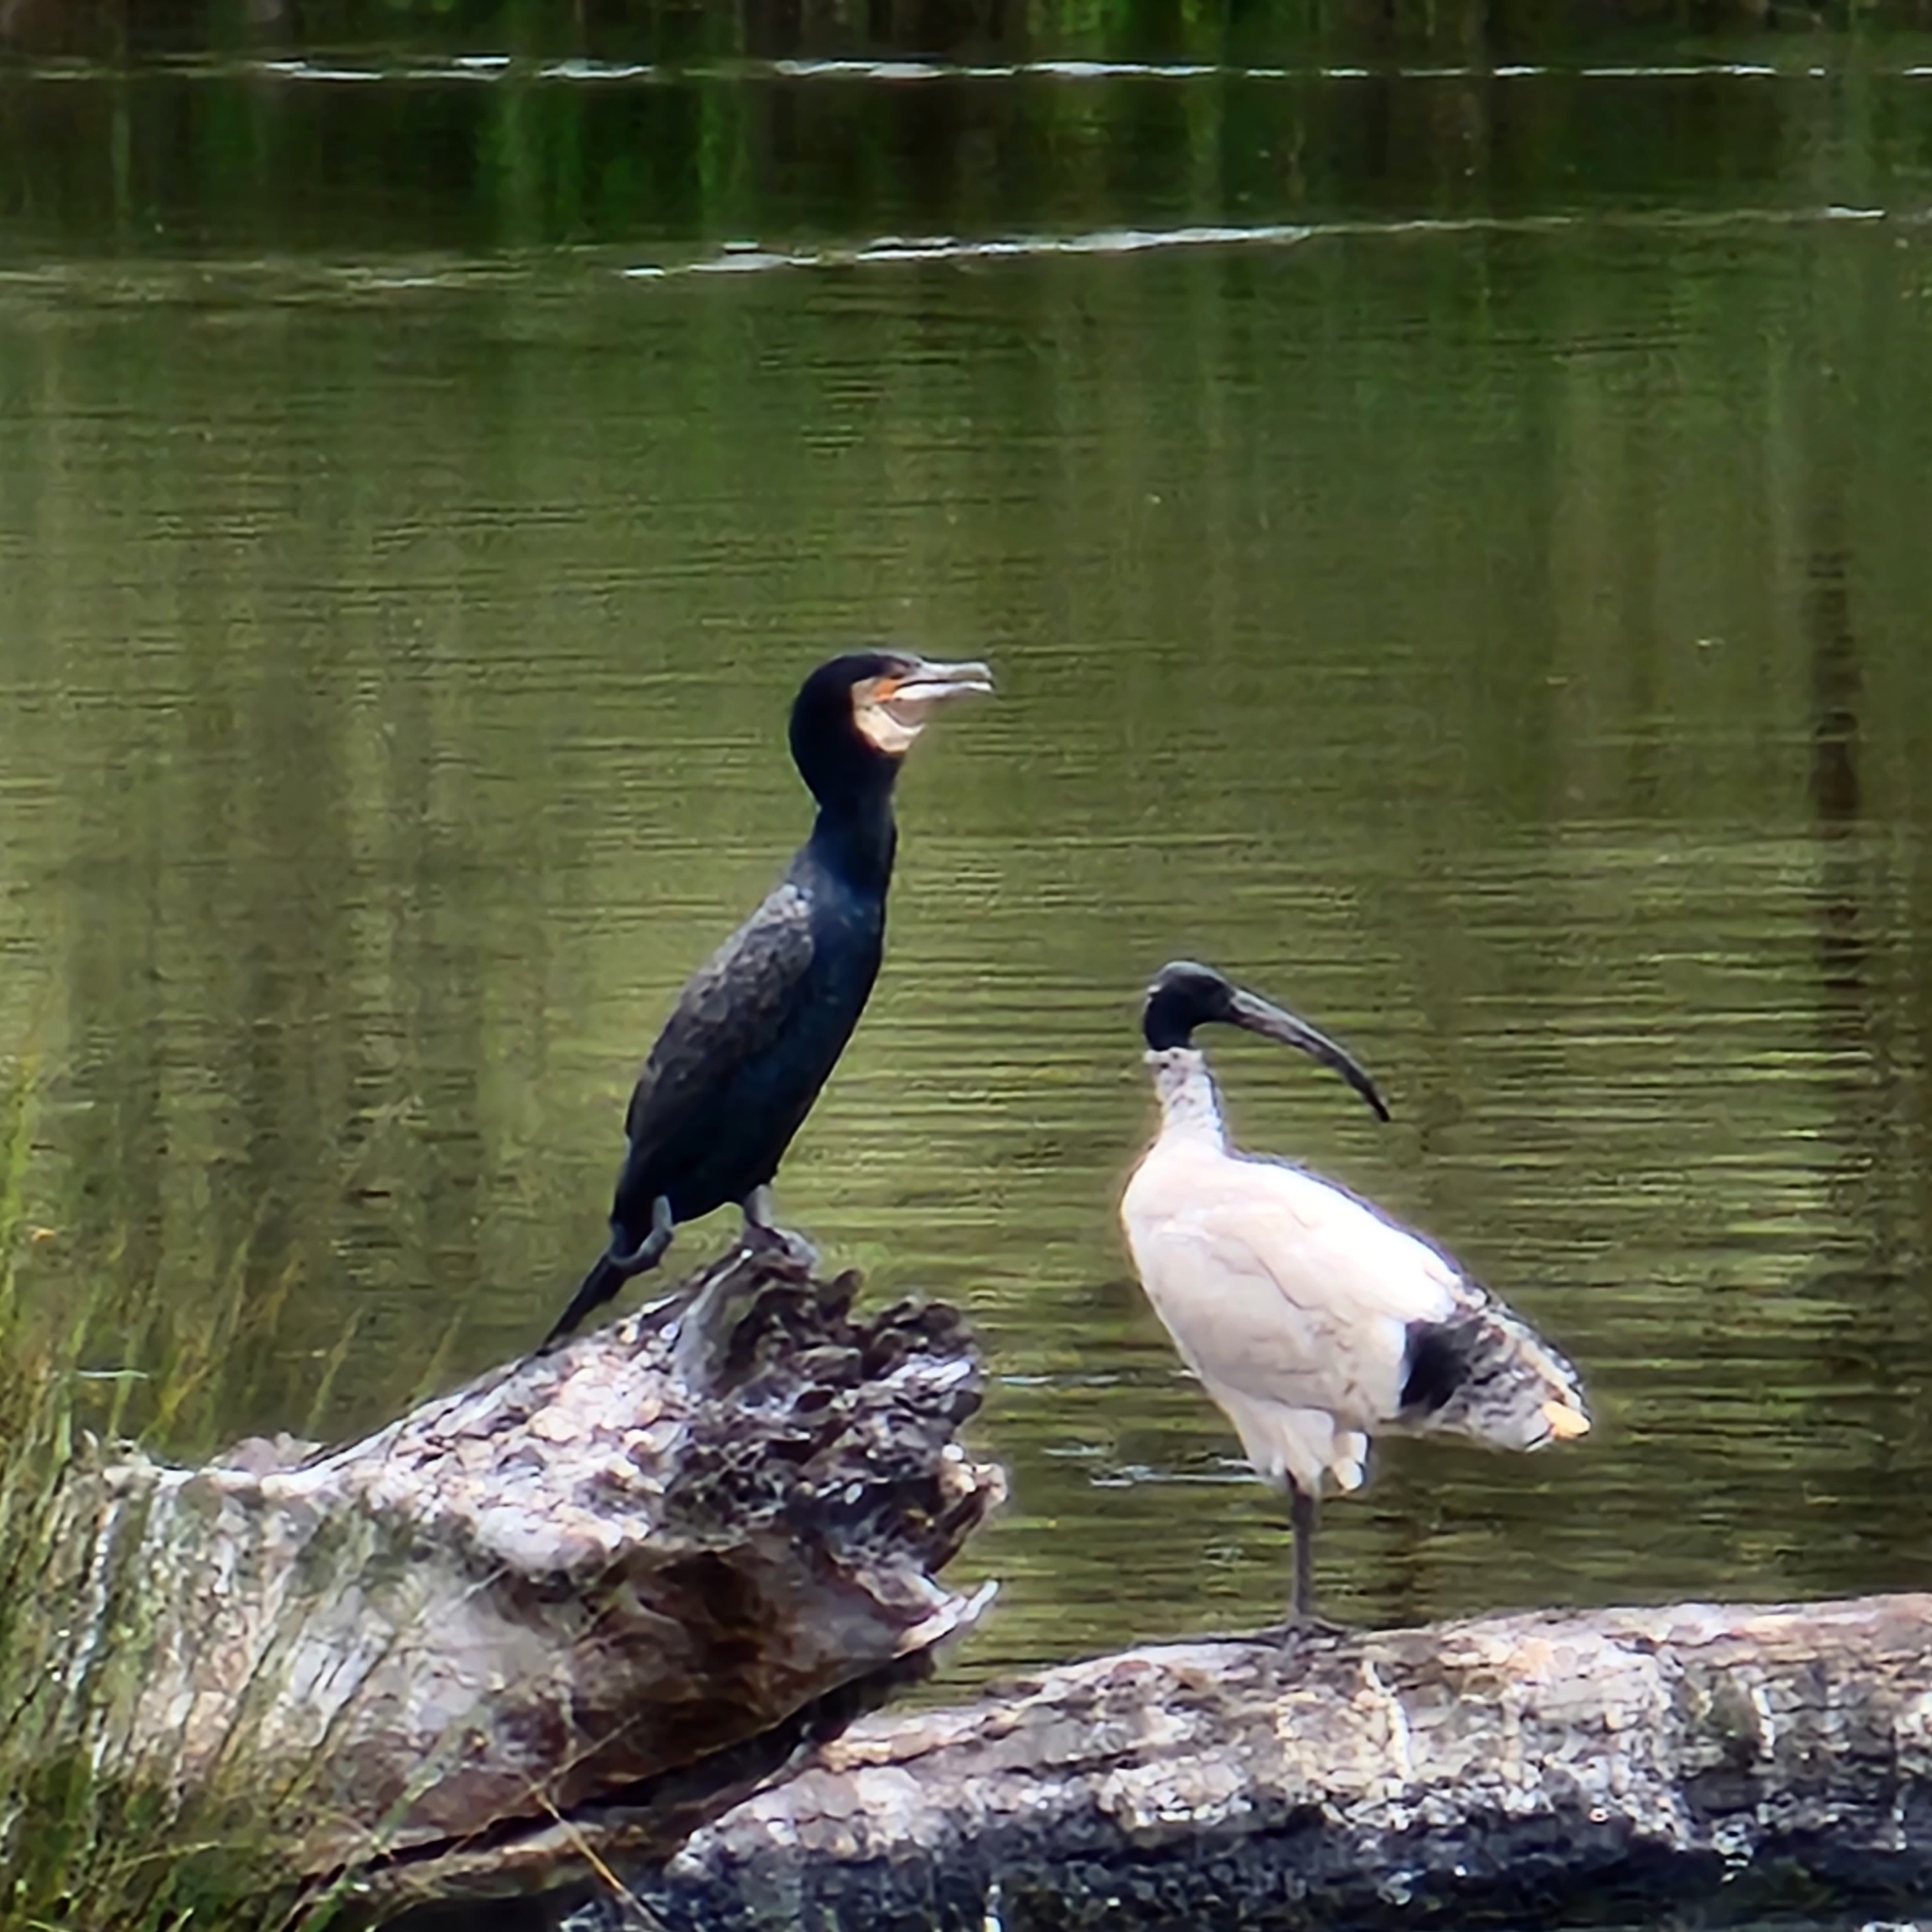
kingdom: Animalia
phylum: Chordata
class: Aves
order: Pelecaniformes
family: Threskiornithidae
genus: Threskiornis
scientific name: Threskiornis molucca
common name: Australian white ibis
